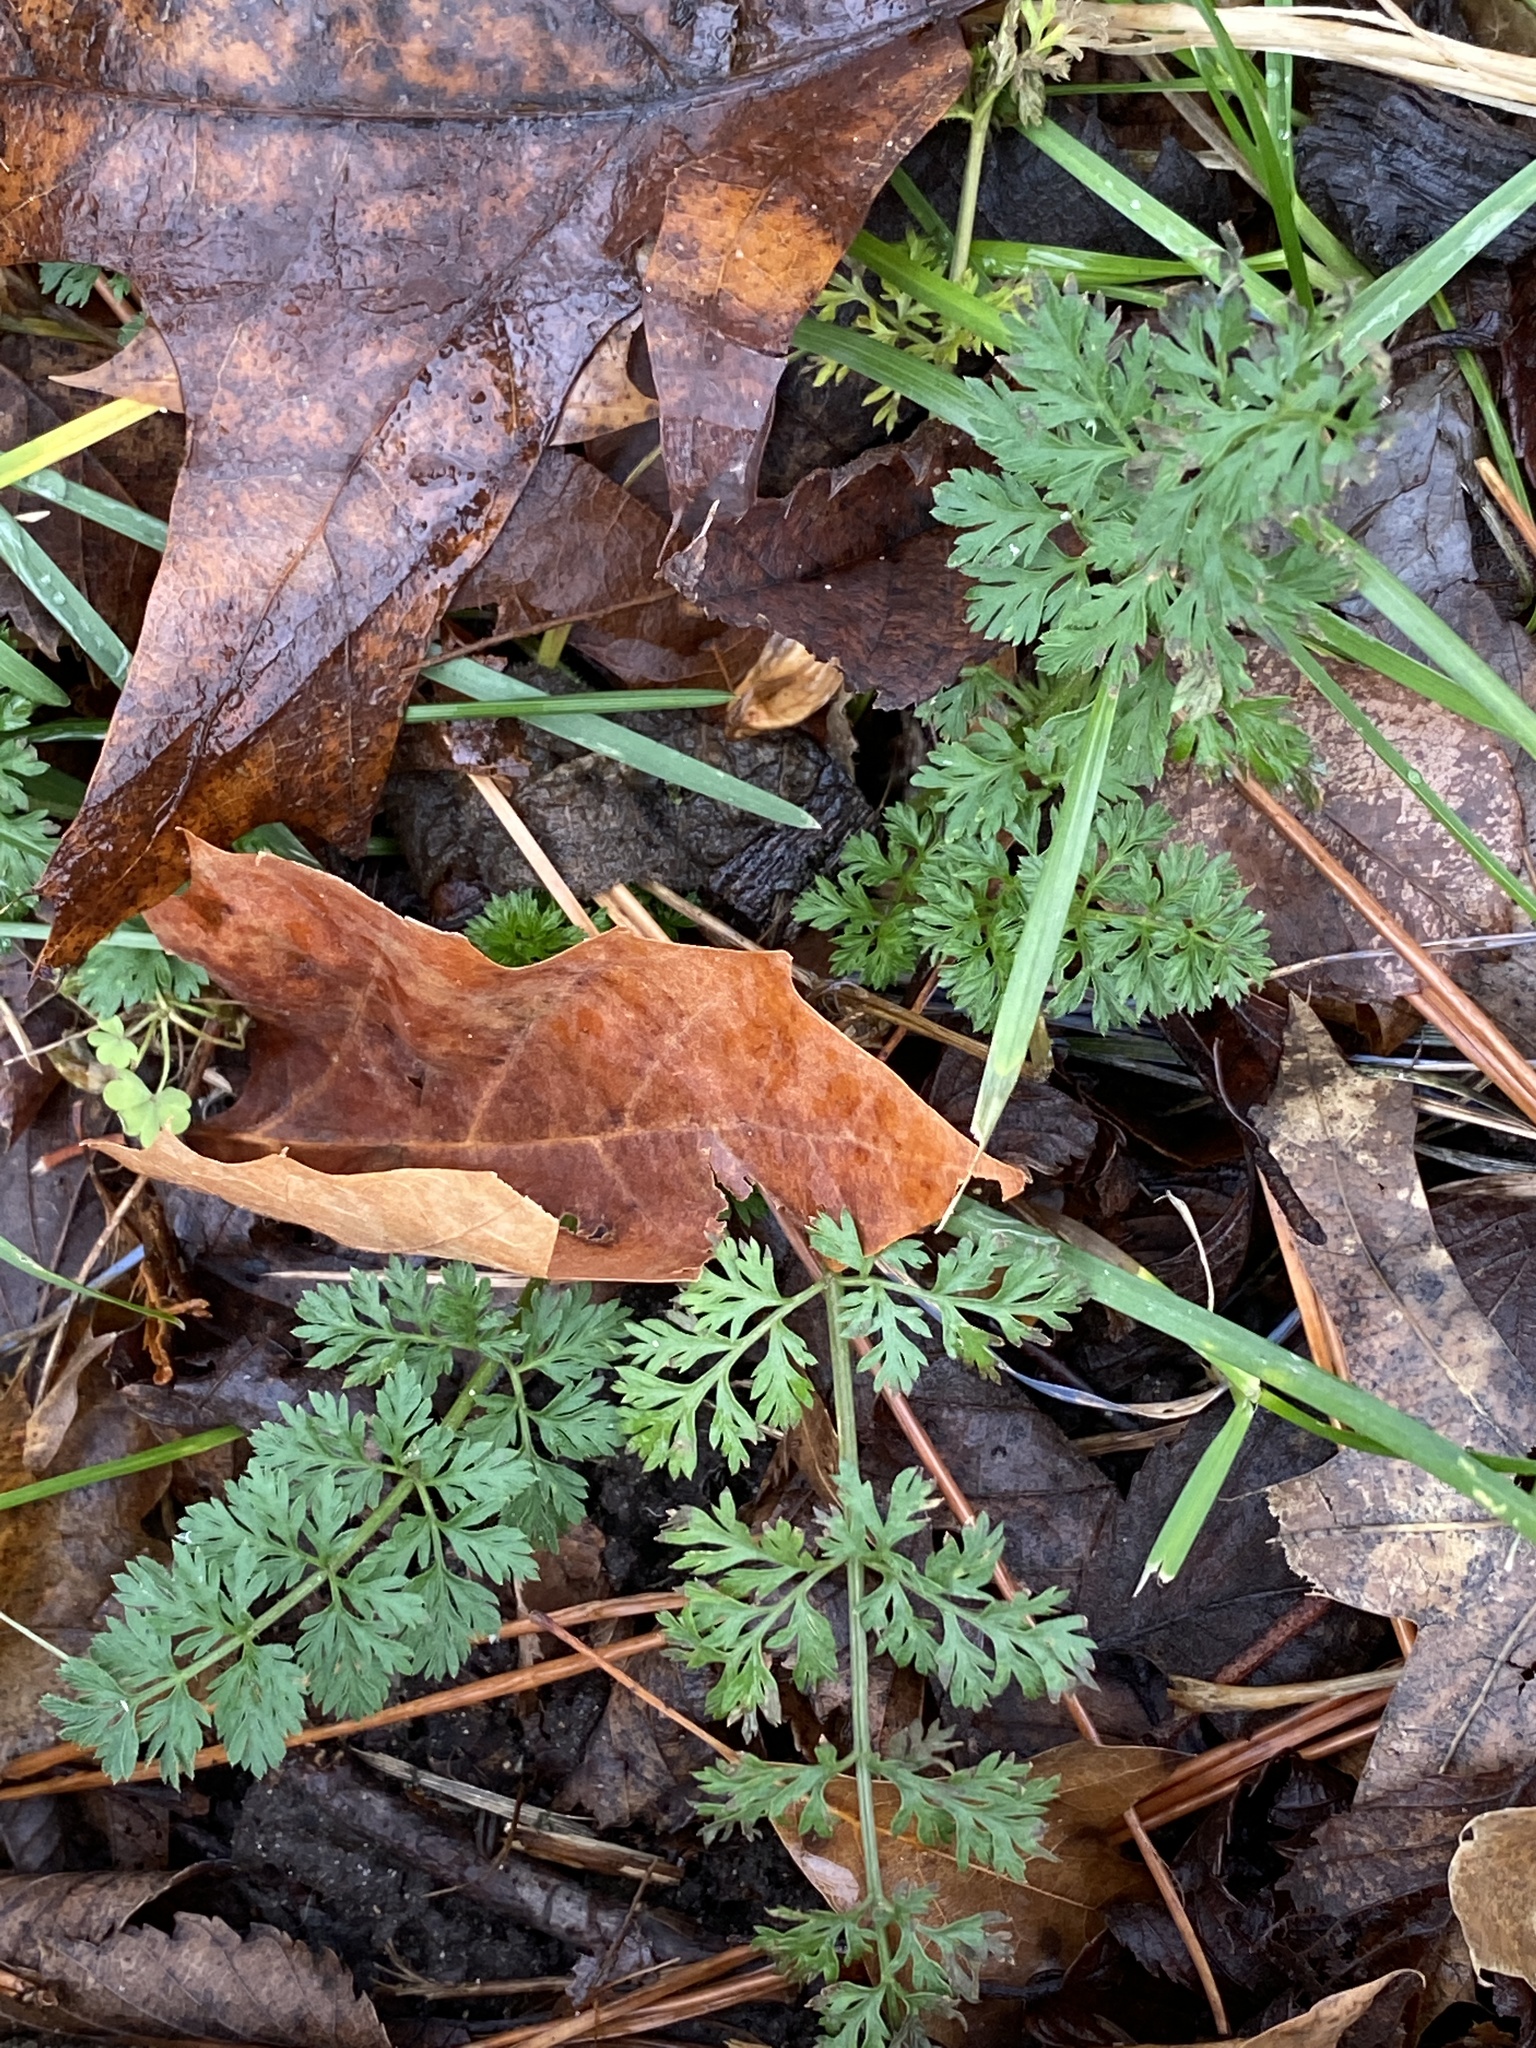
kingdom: Plantae
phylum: Tracheophyta
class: Magnoliopsida
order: Apiales
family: Apiaceae
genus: Daucus
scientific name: Daucus carota
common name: Wild carrot
